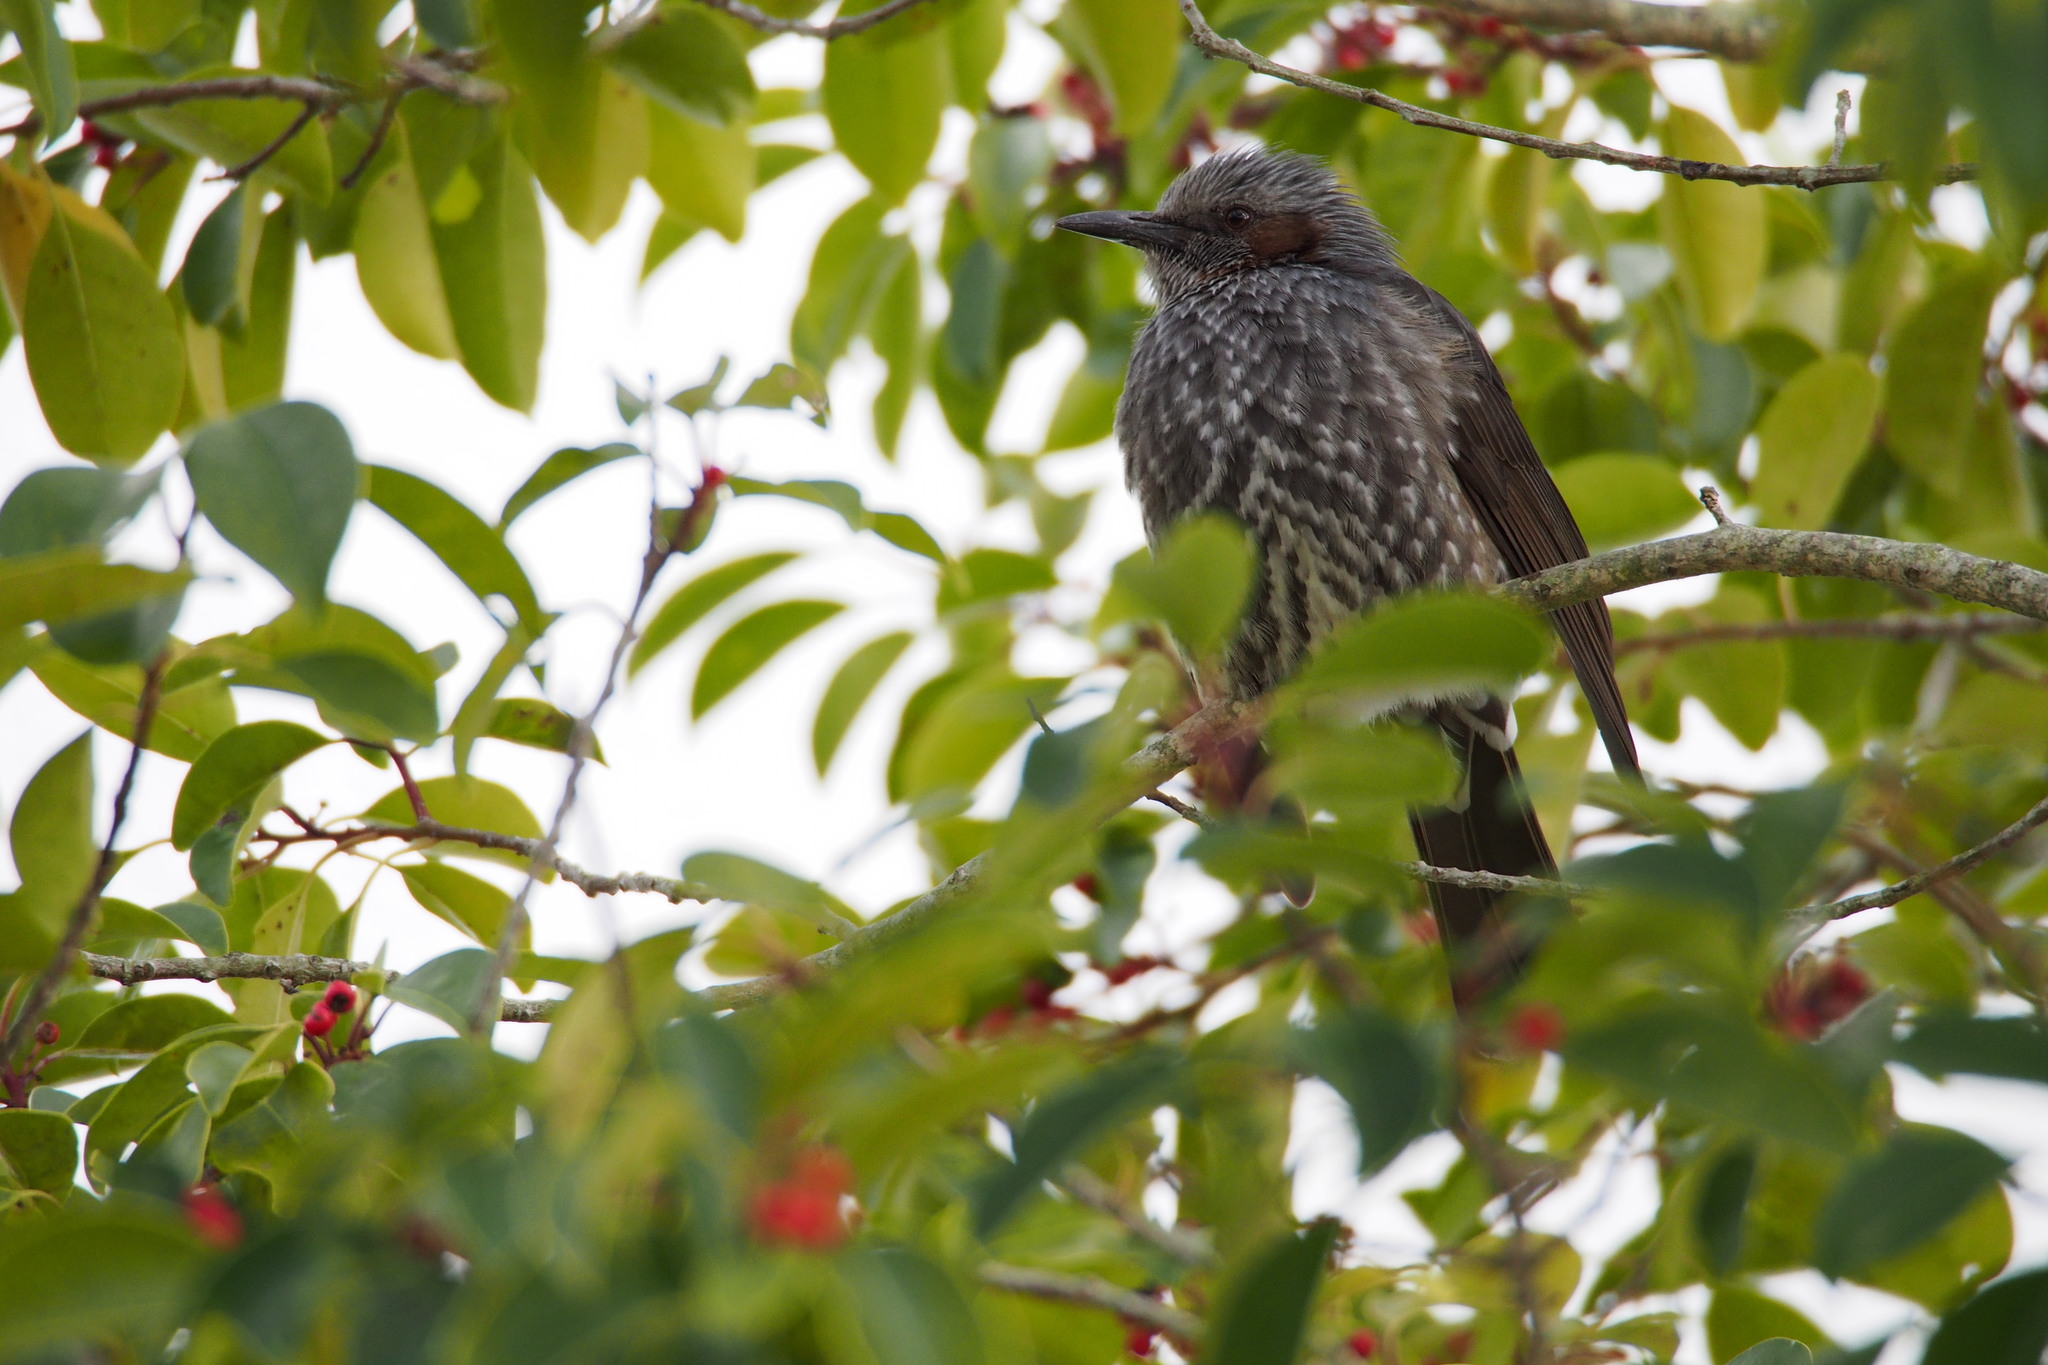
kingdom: Animalia
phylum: Chordata
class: Aves
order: Passeriformes
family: Pycnonotidae
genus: Hypsipetes
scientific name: Hypsipetes amaurotis
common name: Brown-eared bulbul
